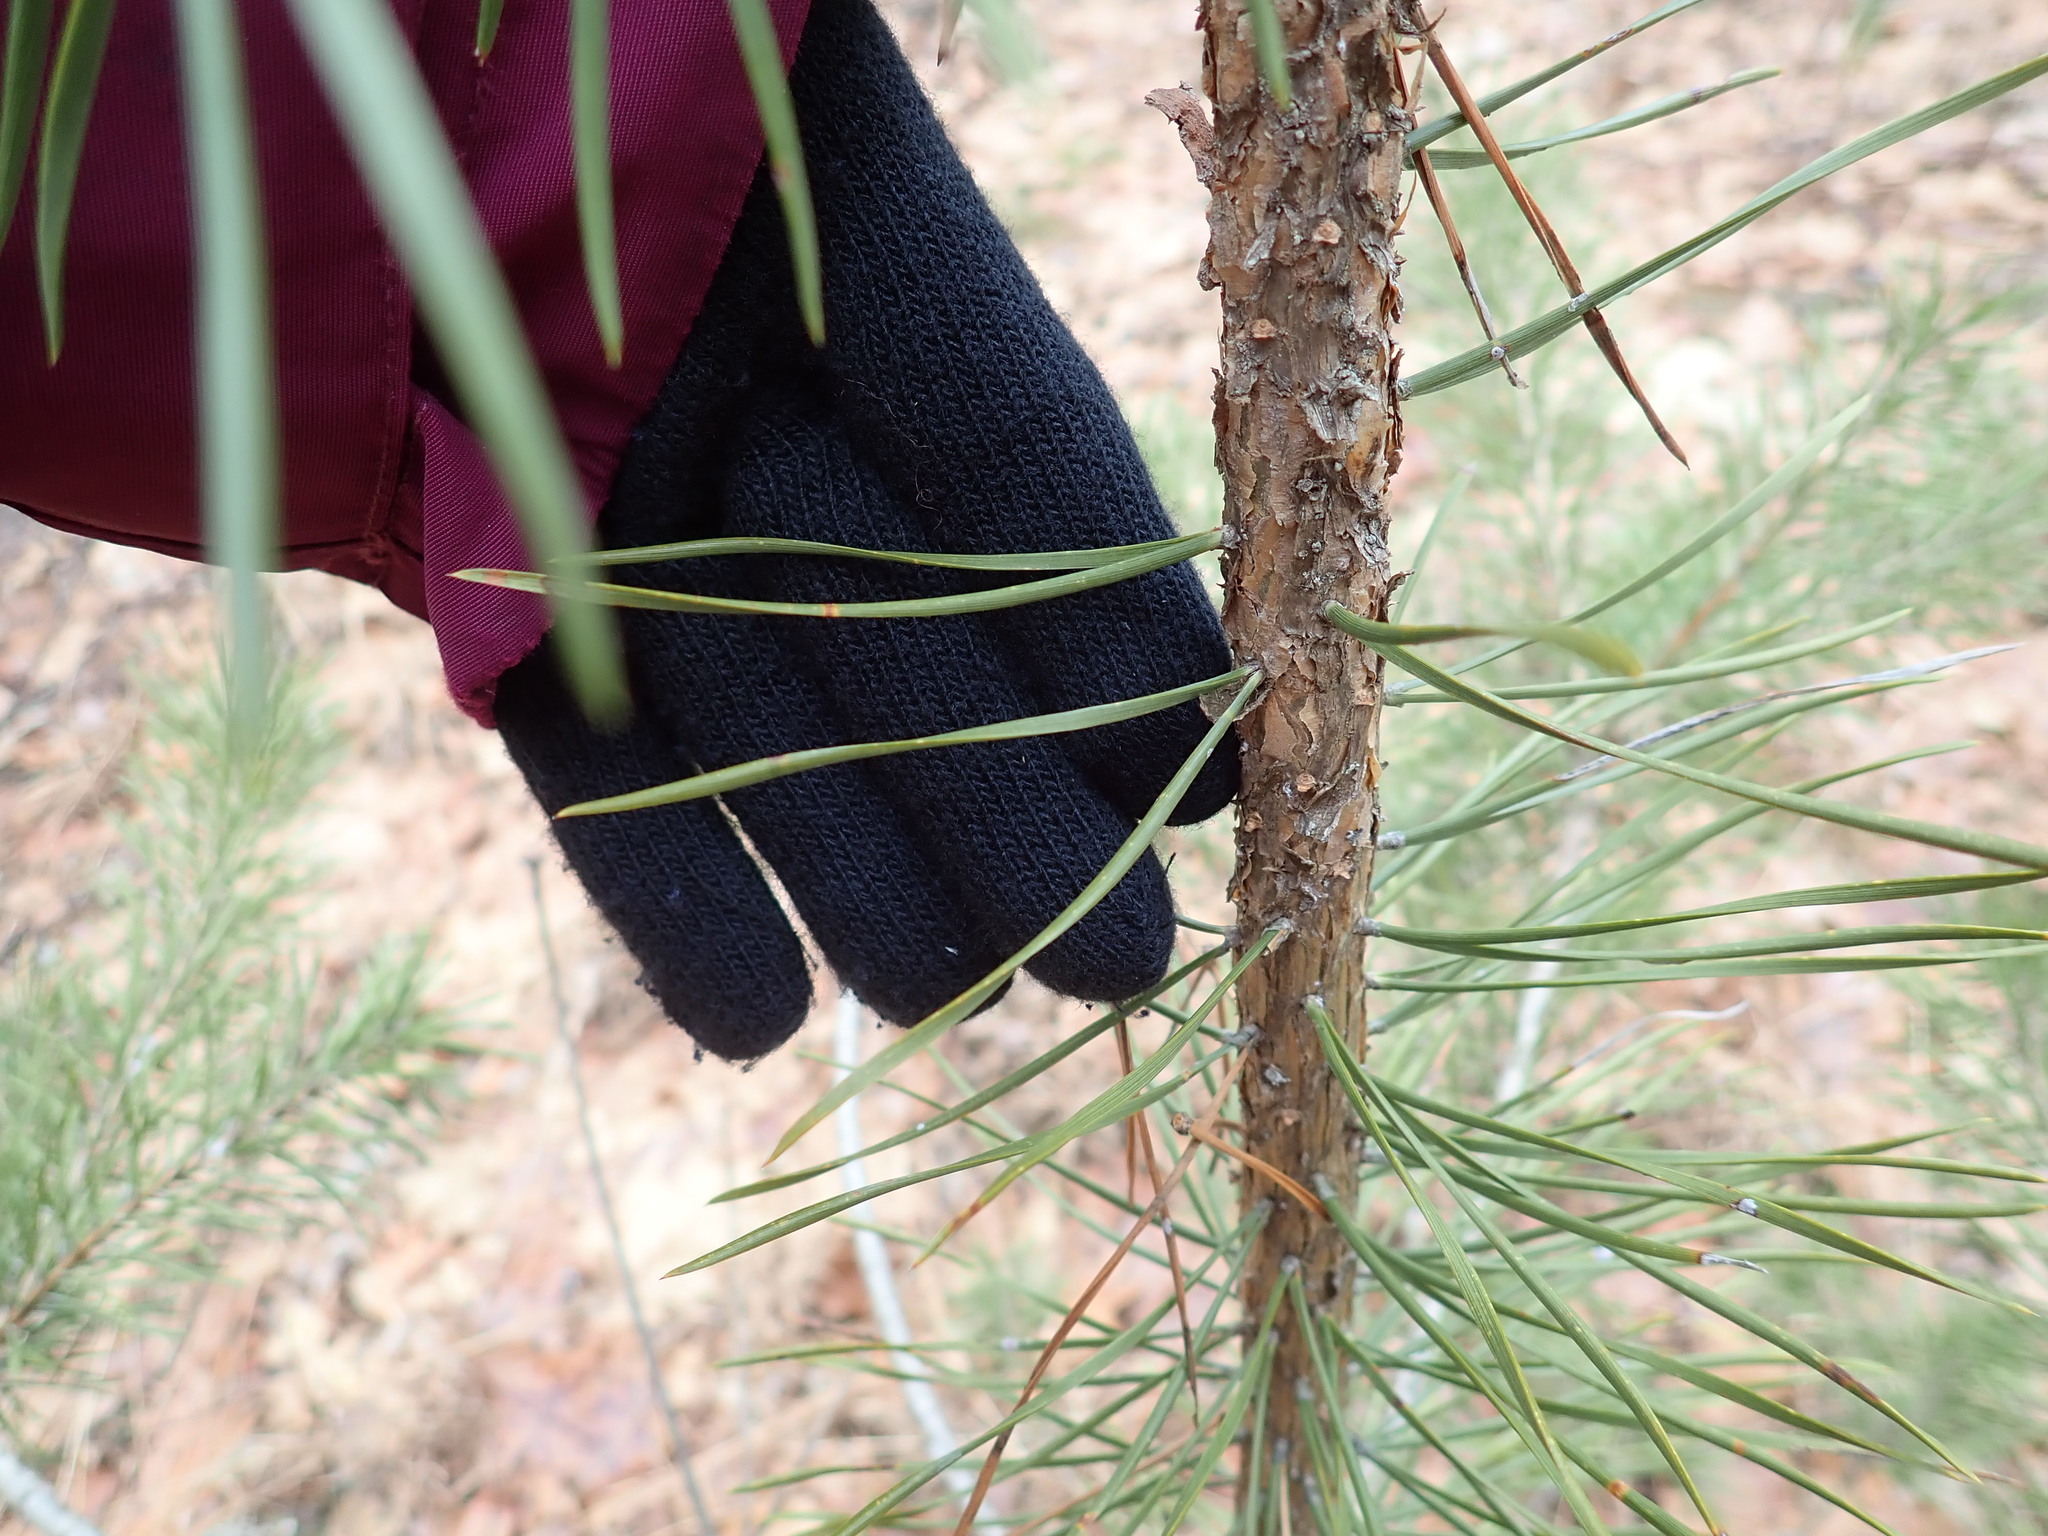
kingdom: Plantae
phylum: Tracheophyta
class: Pinopsida
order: Pinales
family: Pinaceae
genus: Pinus
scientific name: Pinus sylvestris
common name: Scots pine
